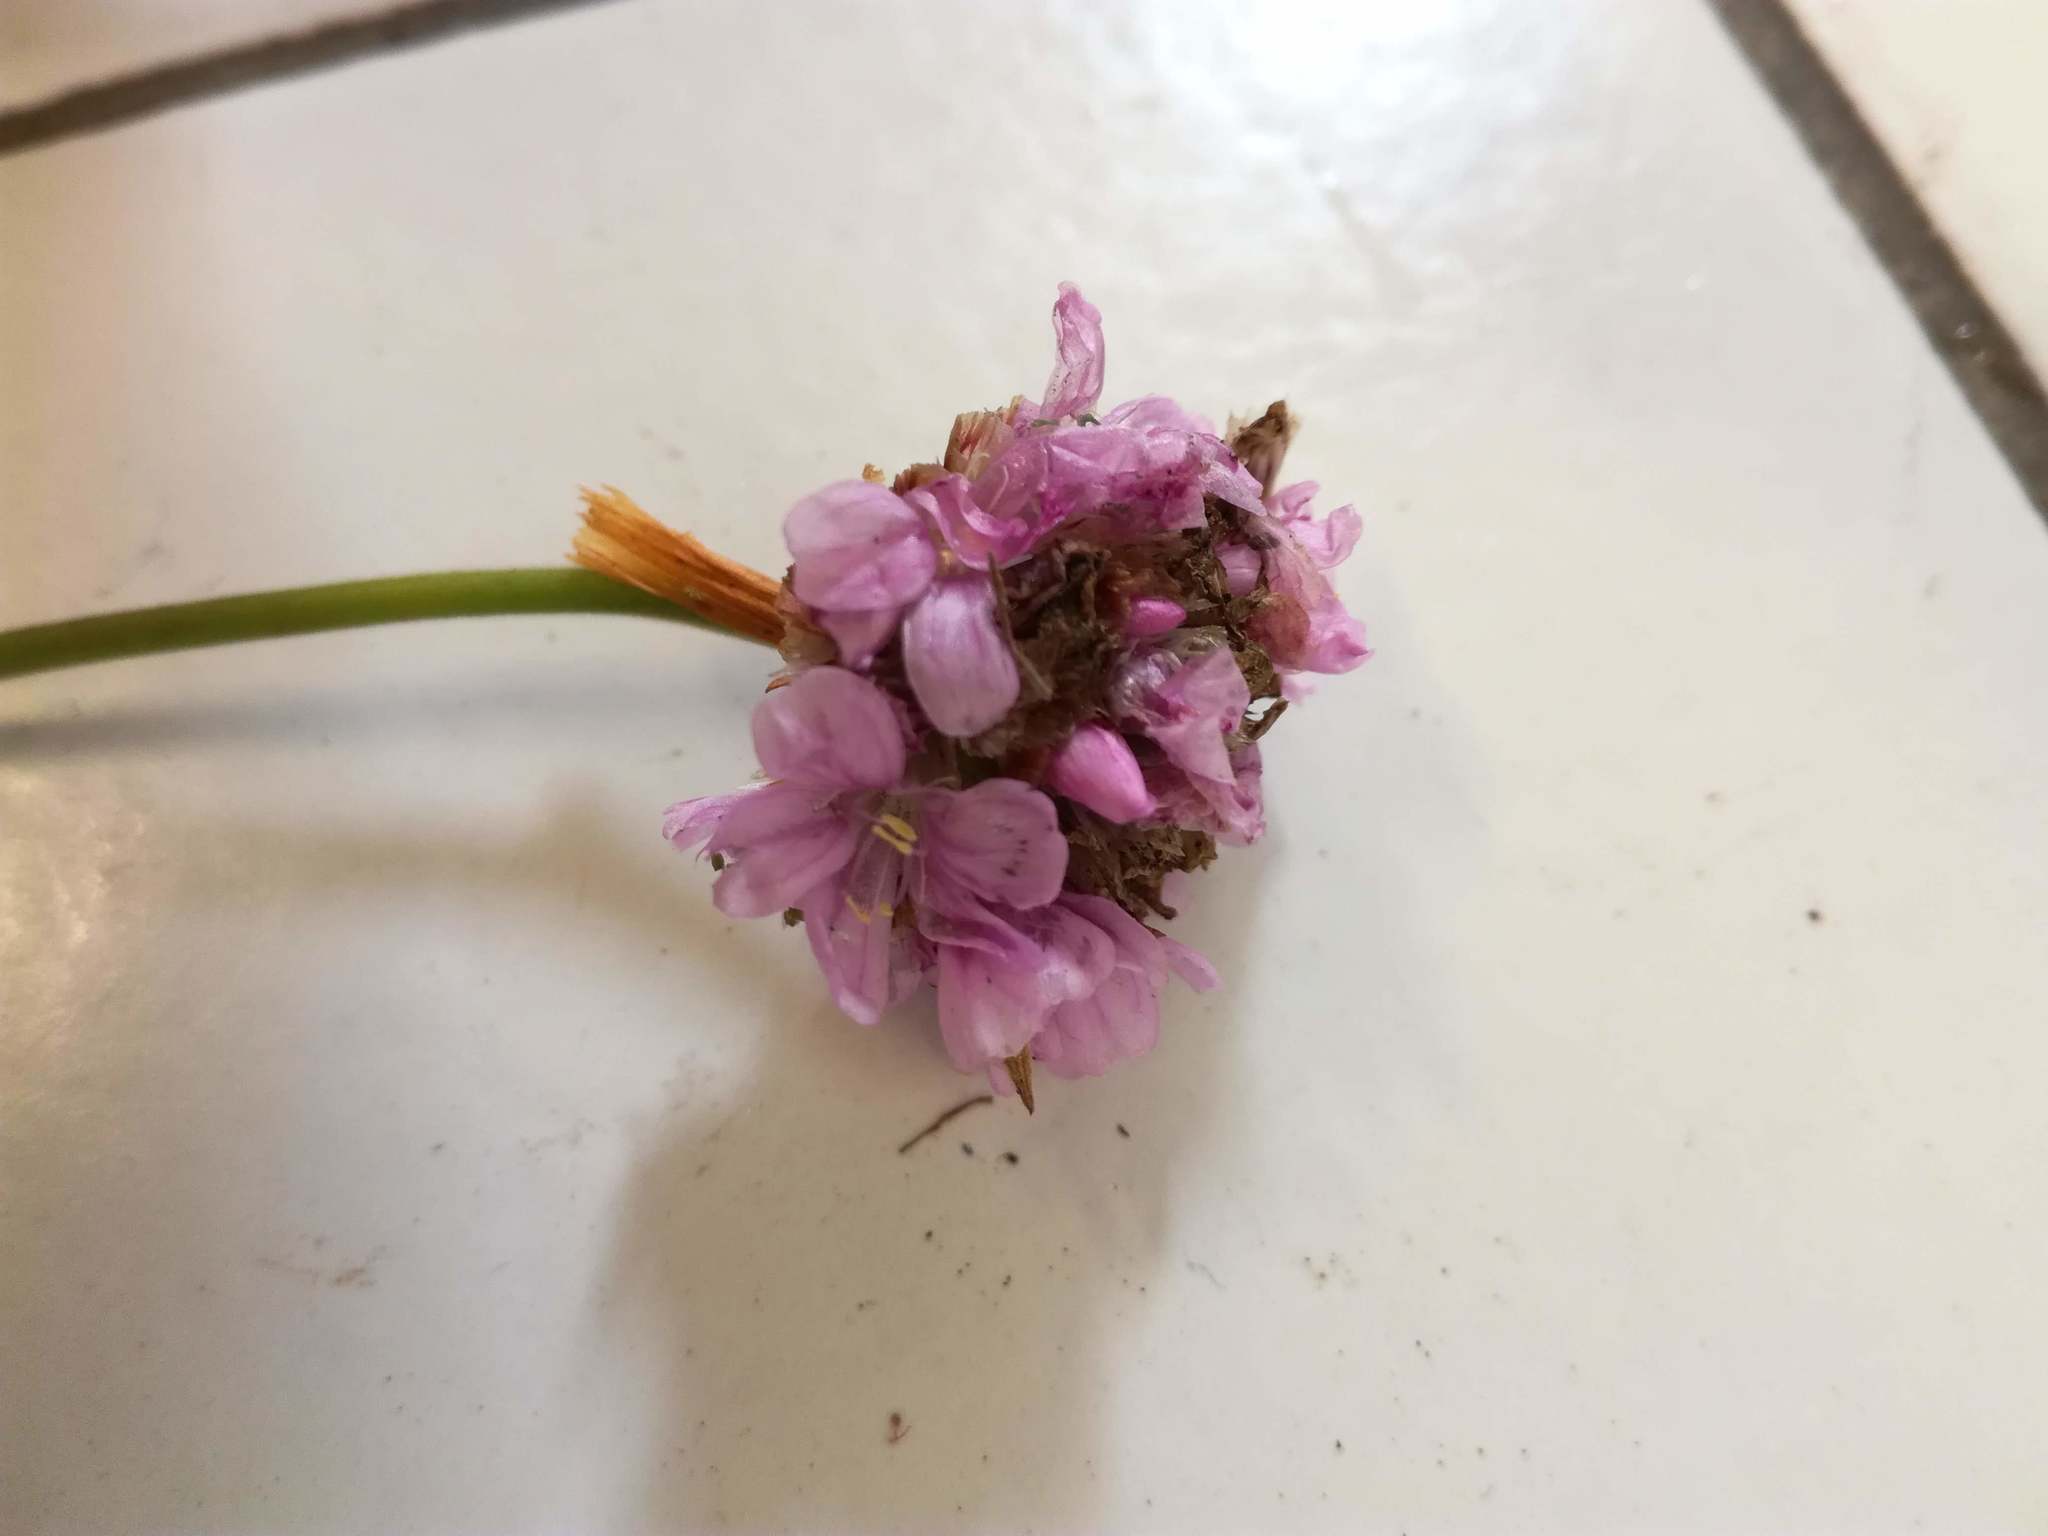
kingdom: Plantae
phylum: Tracheophyta
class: Magnoliopsida
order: Caryophyllales
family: Plumbaginaceae
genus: Armeria
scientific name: Armeria maritima
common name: Thrift
